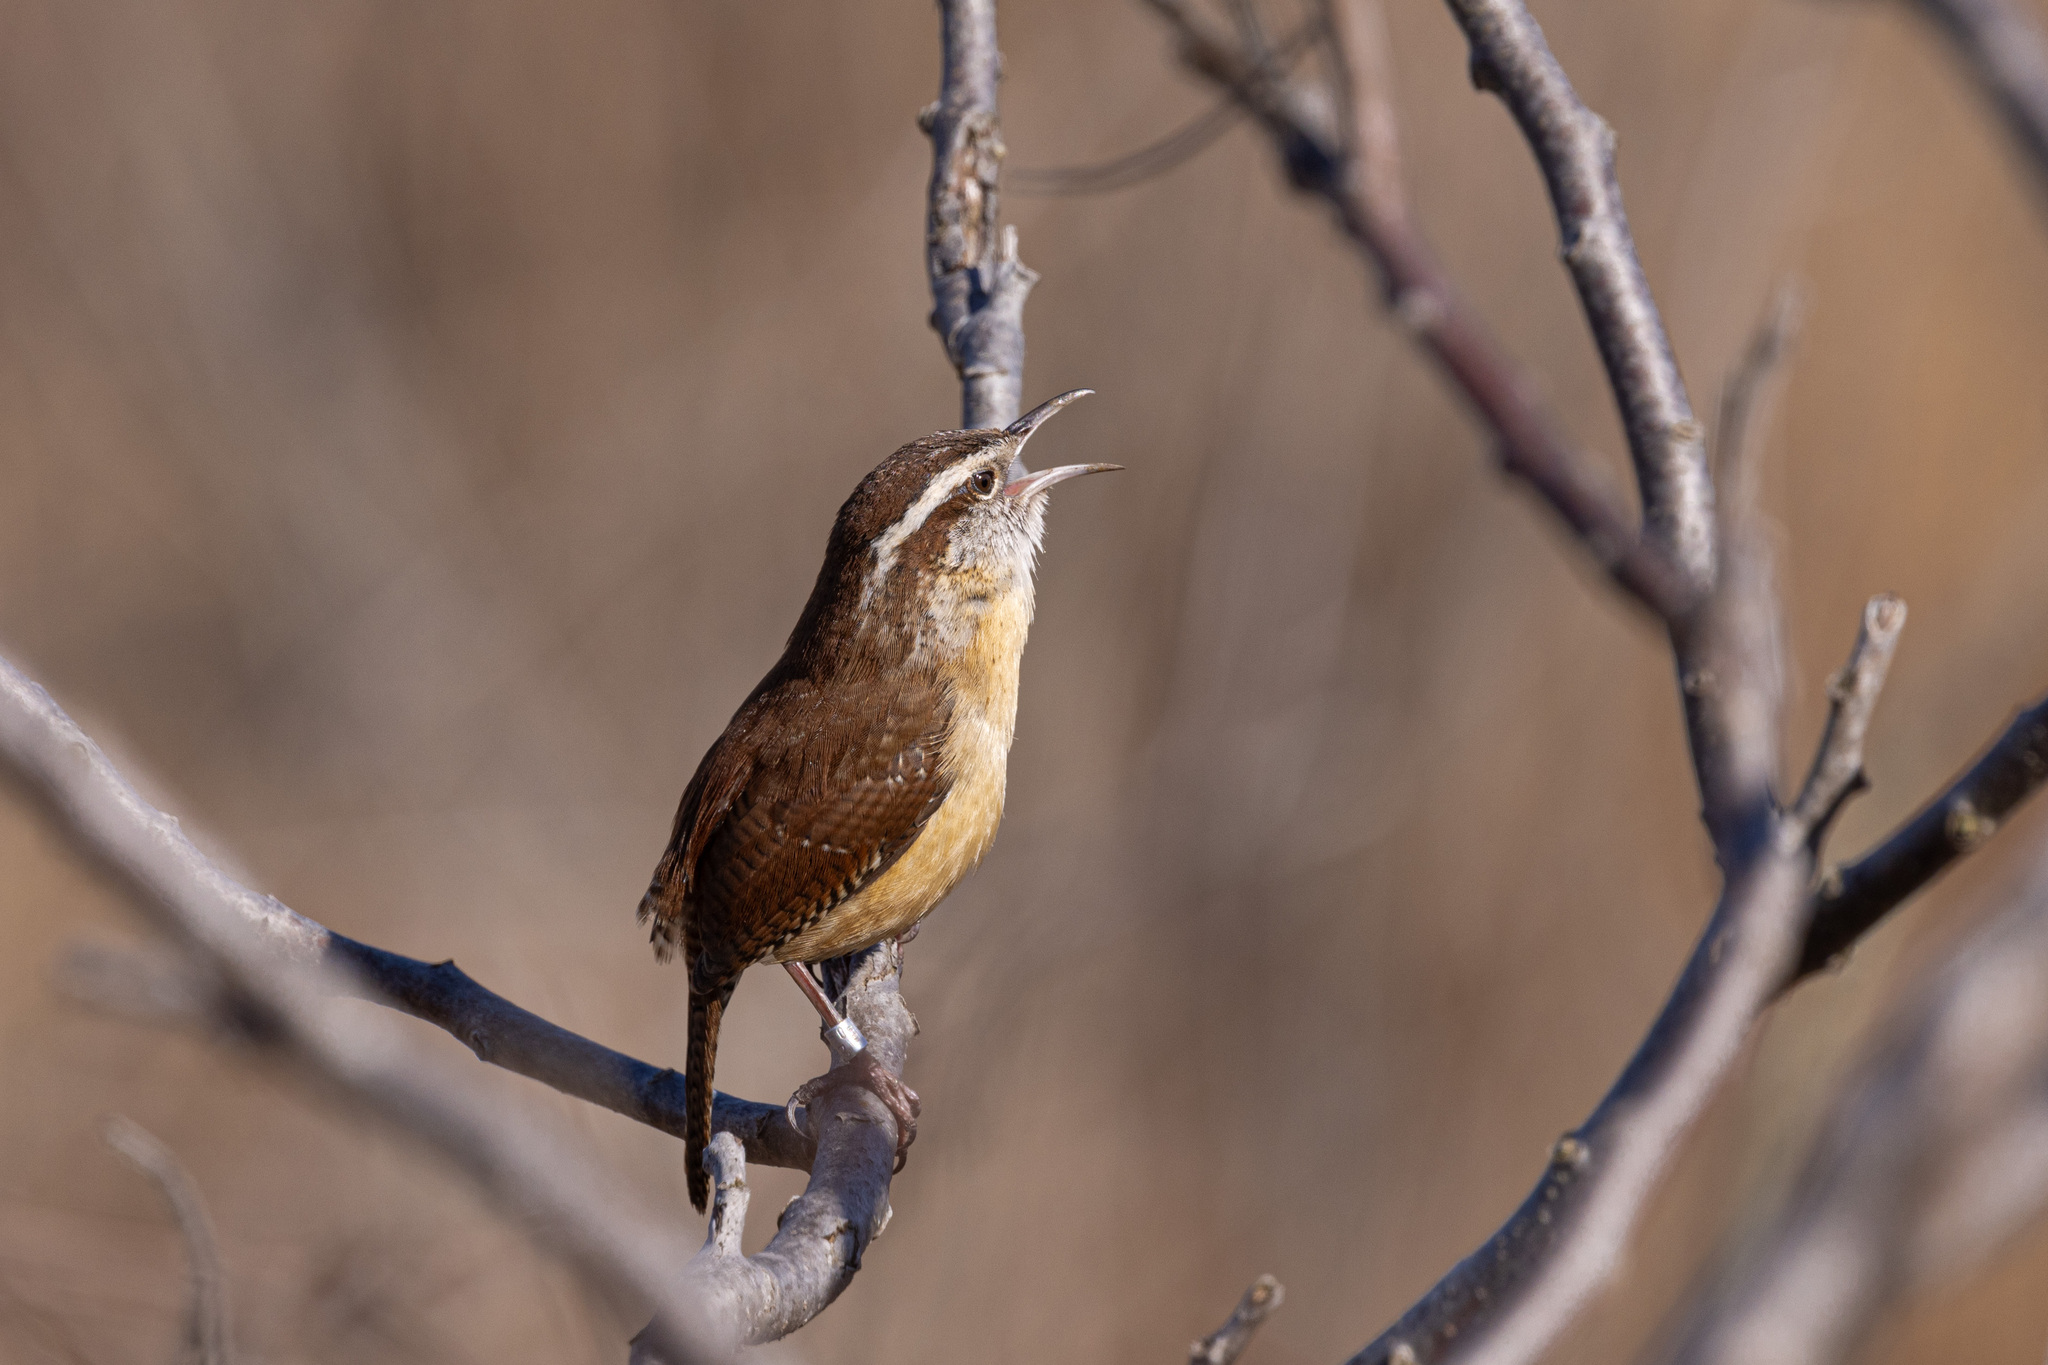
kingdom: Animalia
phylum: Chordata
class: Aves
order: Passeriformes
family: Troglodytidae
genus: Thryothorus
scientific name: Thryothorus ludovicianus
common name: Carolina wren
